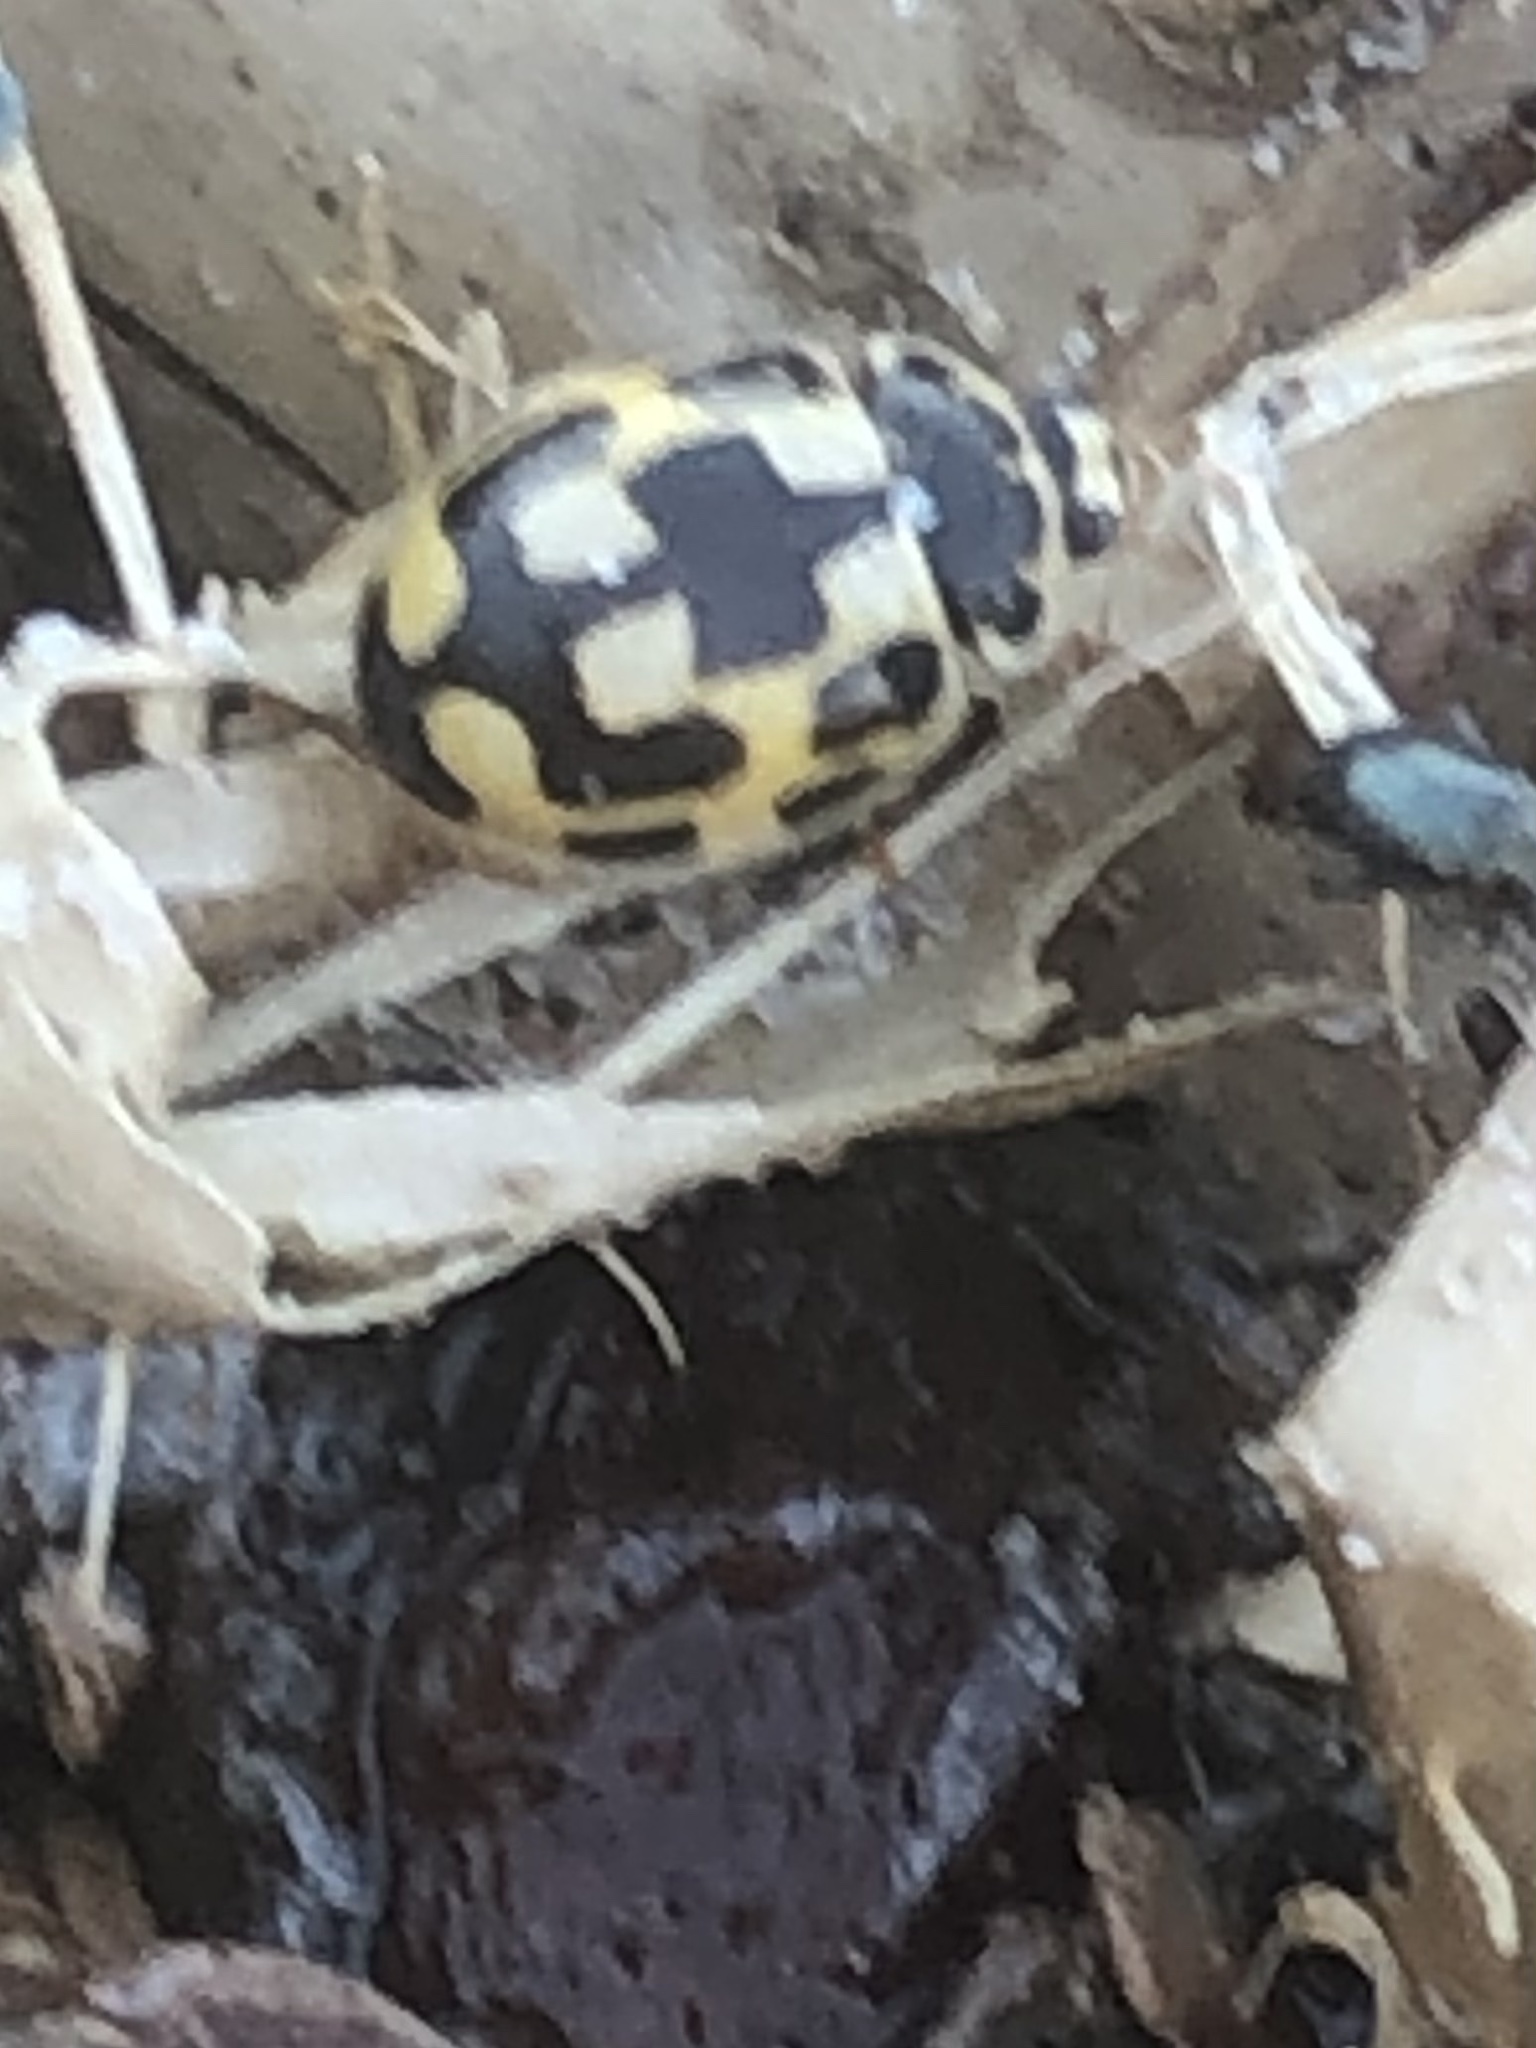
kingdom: Animalia
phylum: Arthropoda
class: Insecta
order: Coleoptera
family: Coccinellidae
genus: Propylaea
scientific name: Propylaea quatuordecimpunctata
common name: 14-spotted ladybird beetle
